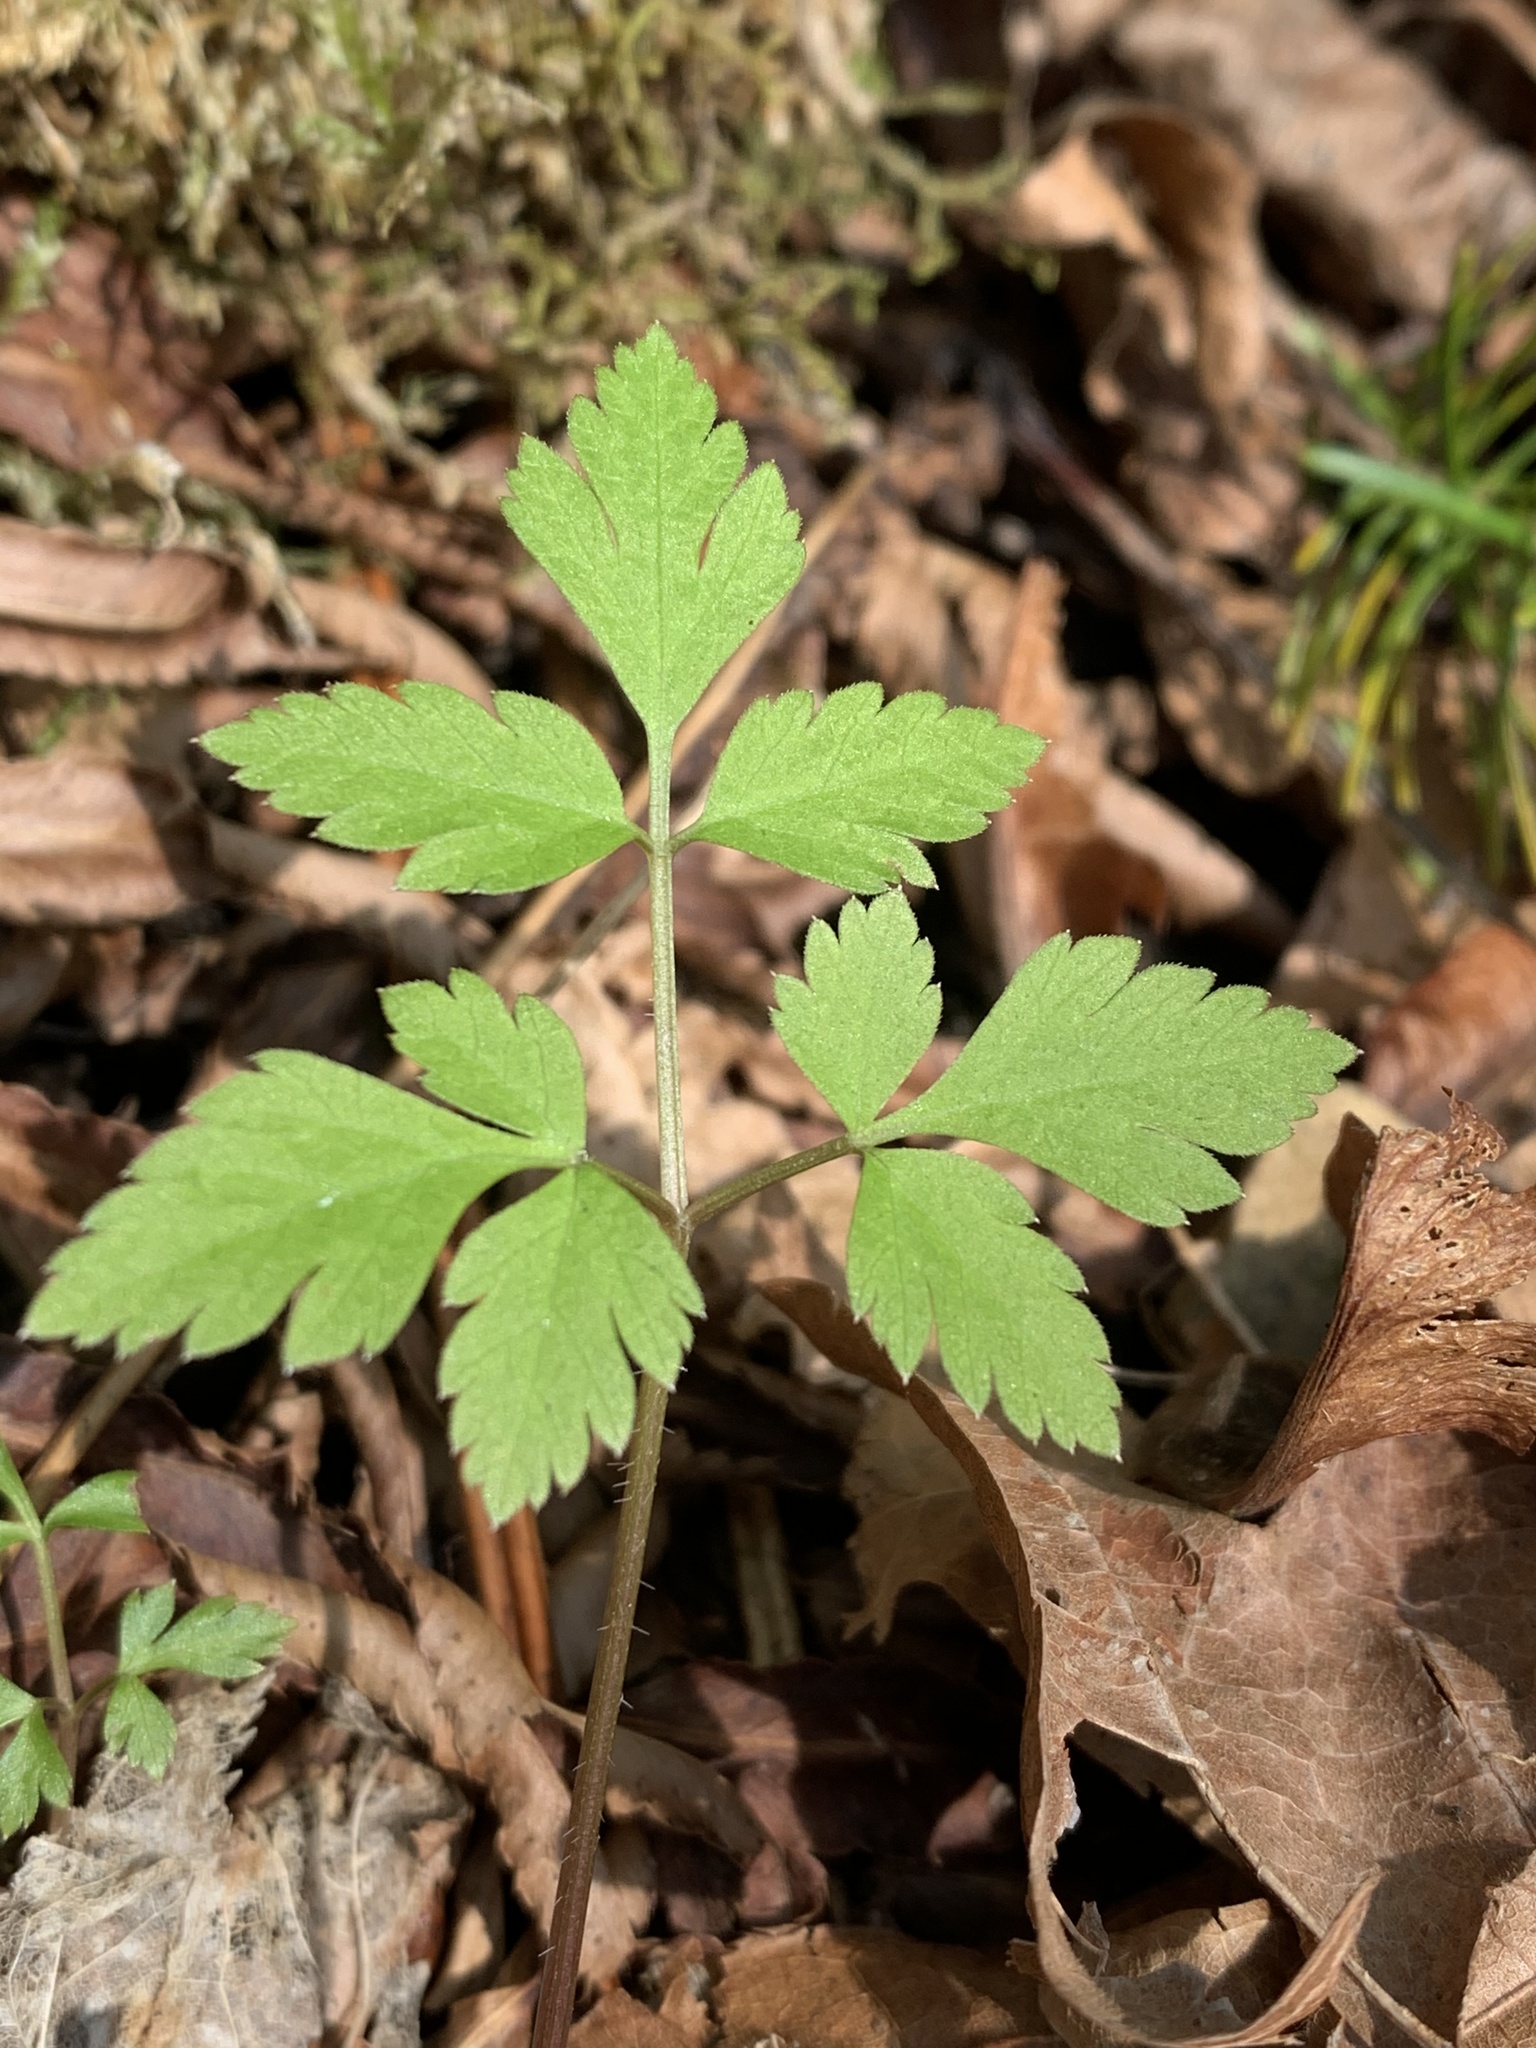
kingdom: Plantae
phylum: Tracheophyta
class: Magnoliopsida
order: Apiales
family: Apiaceae
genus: Osmorhiza
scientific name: Osmorhiza berteroi
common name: Mountain sweet cicely
